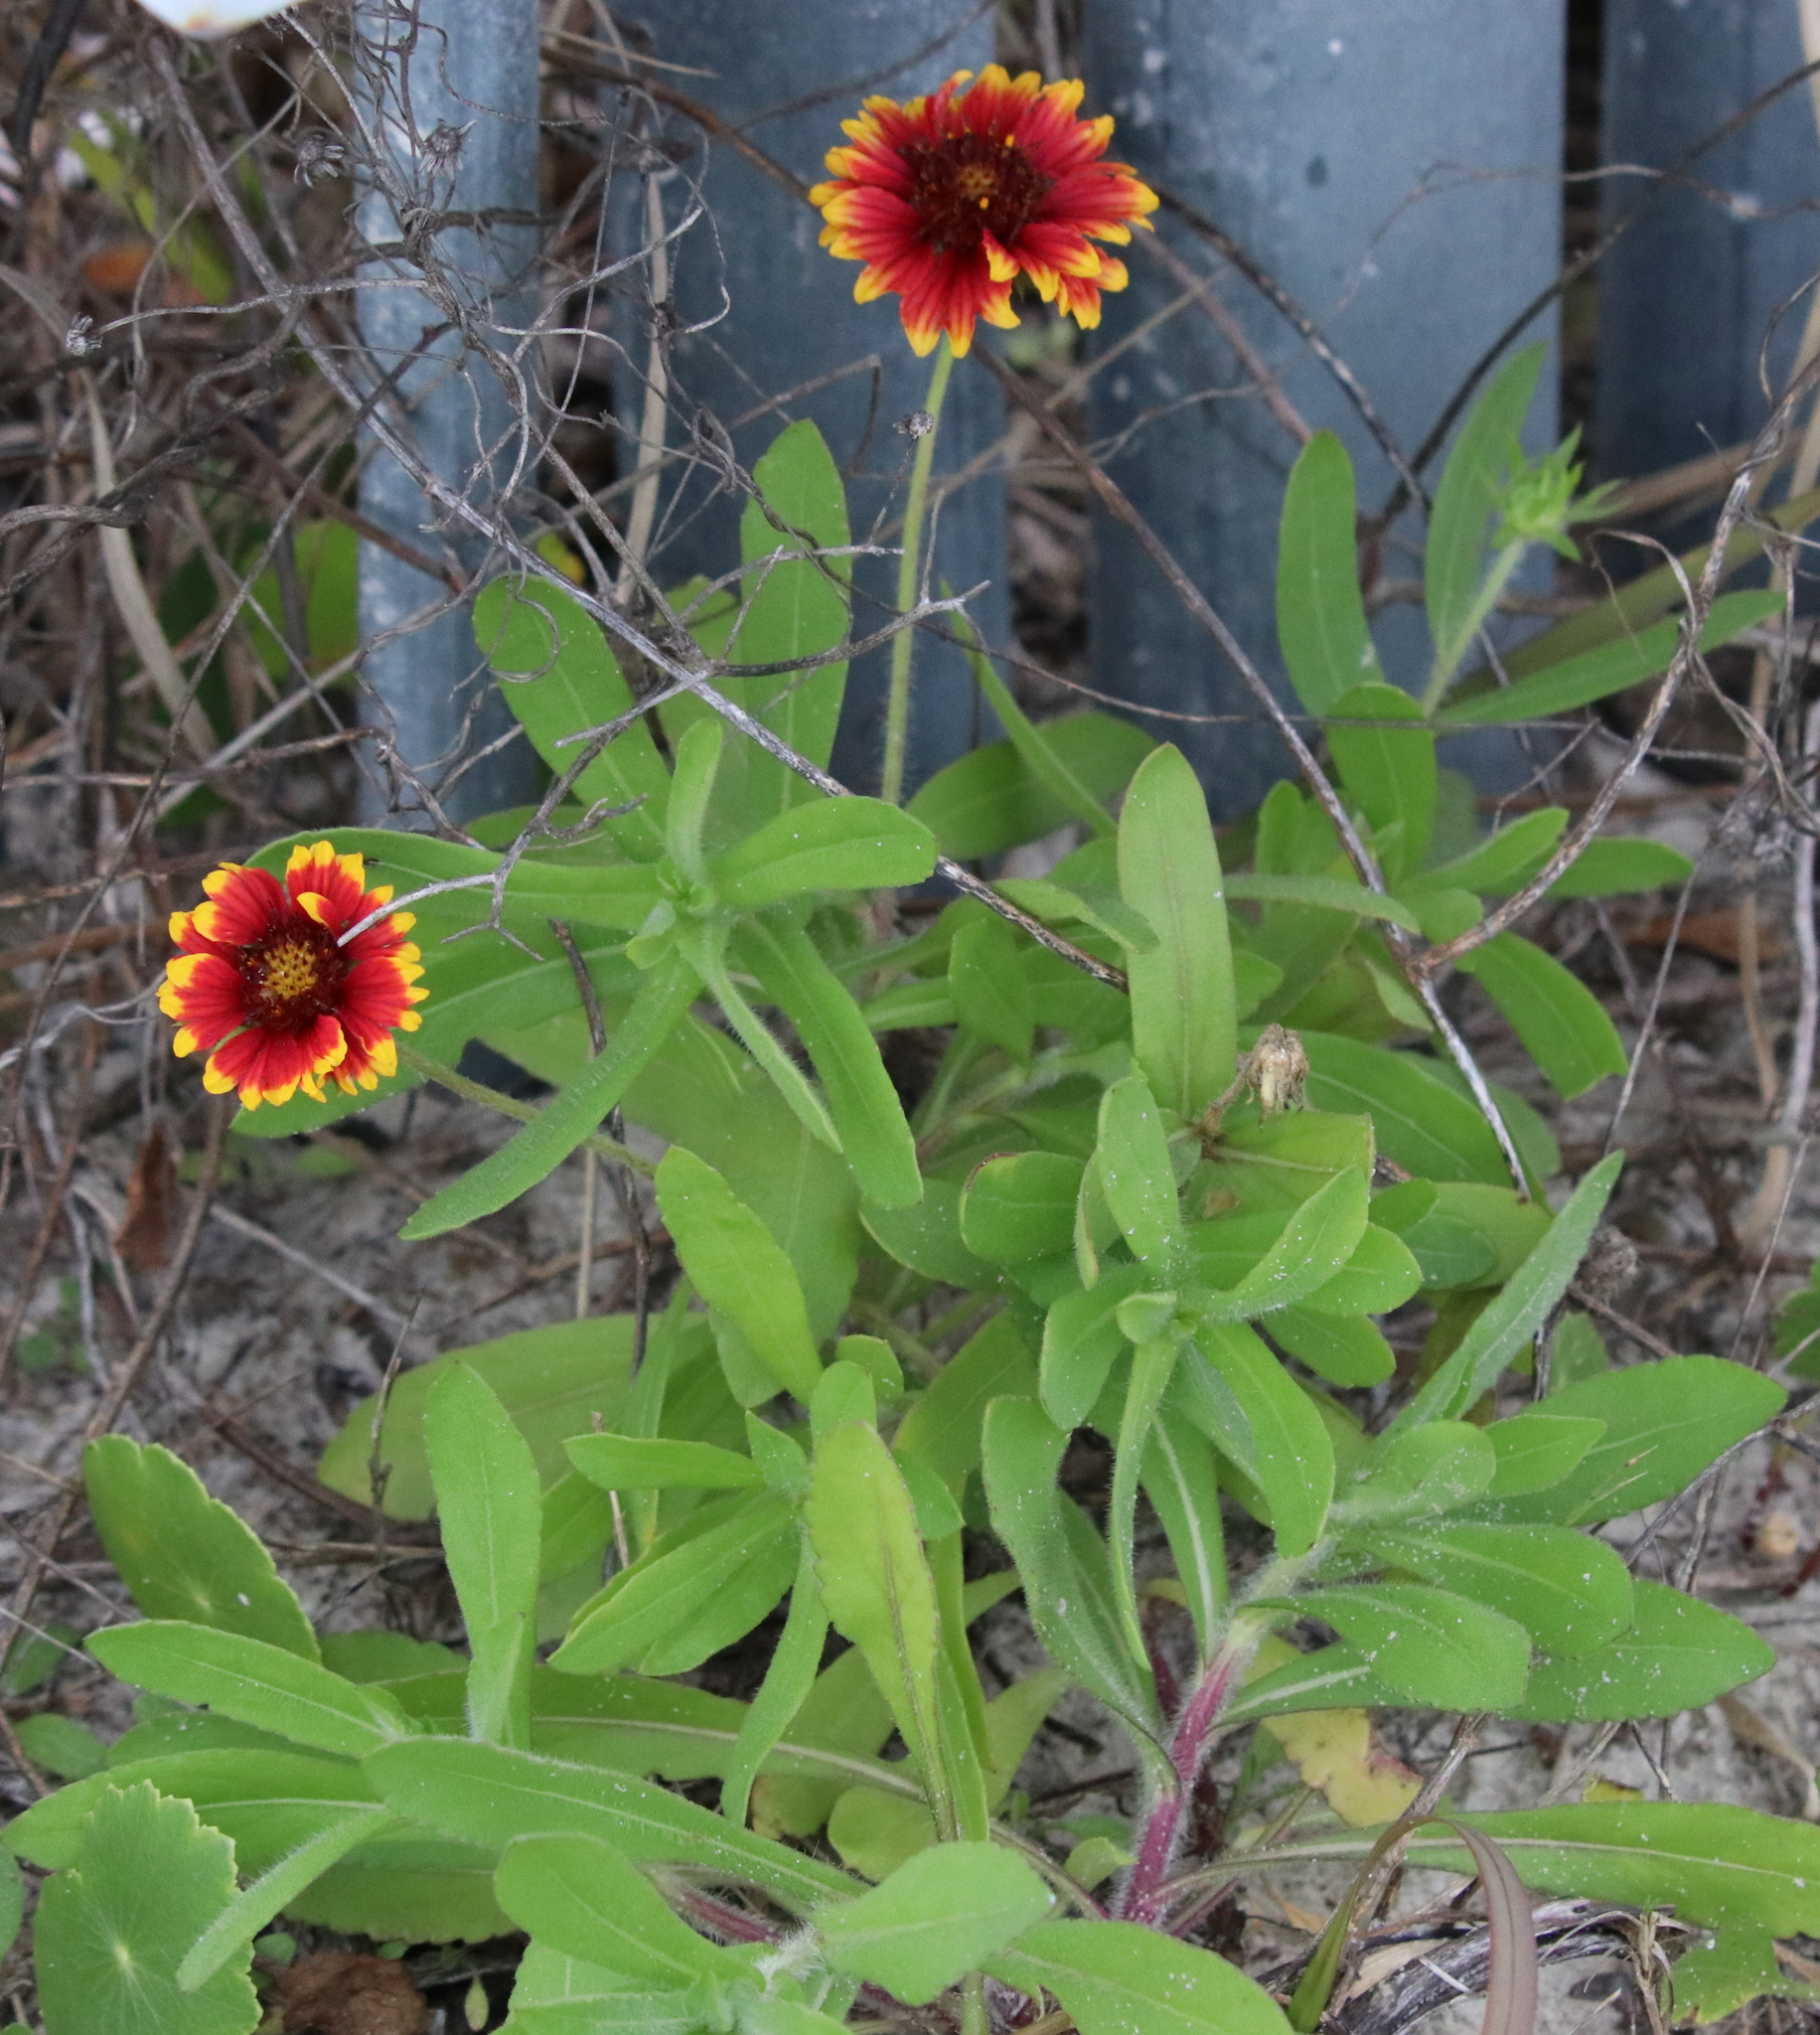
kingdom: Plantae
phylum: Tracheophyta
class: Magnoliopsida
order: Asterales
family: Asteraceae
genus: Gaillardia
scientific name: Gaillardia pulchella
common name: Firewheel
